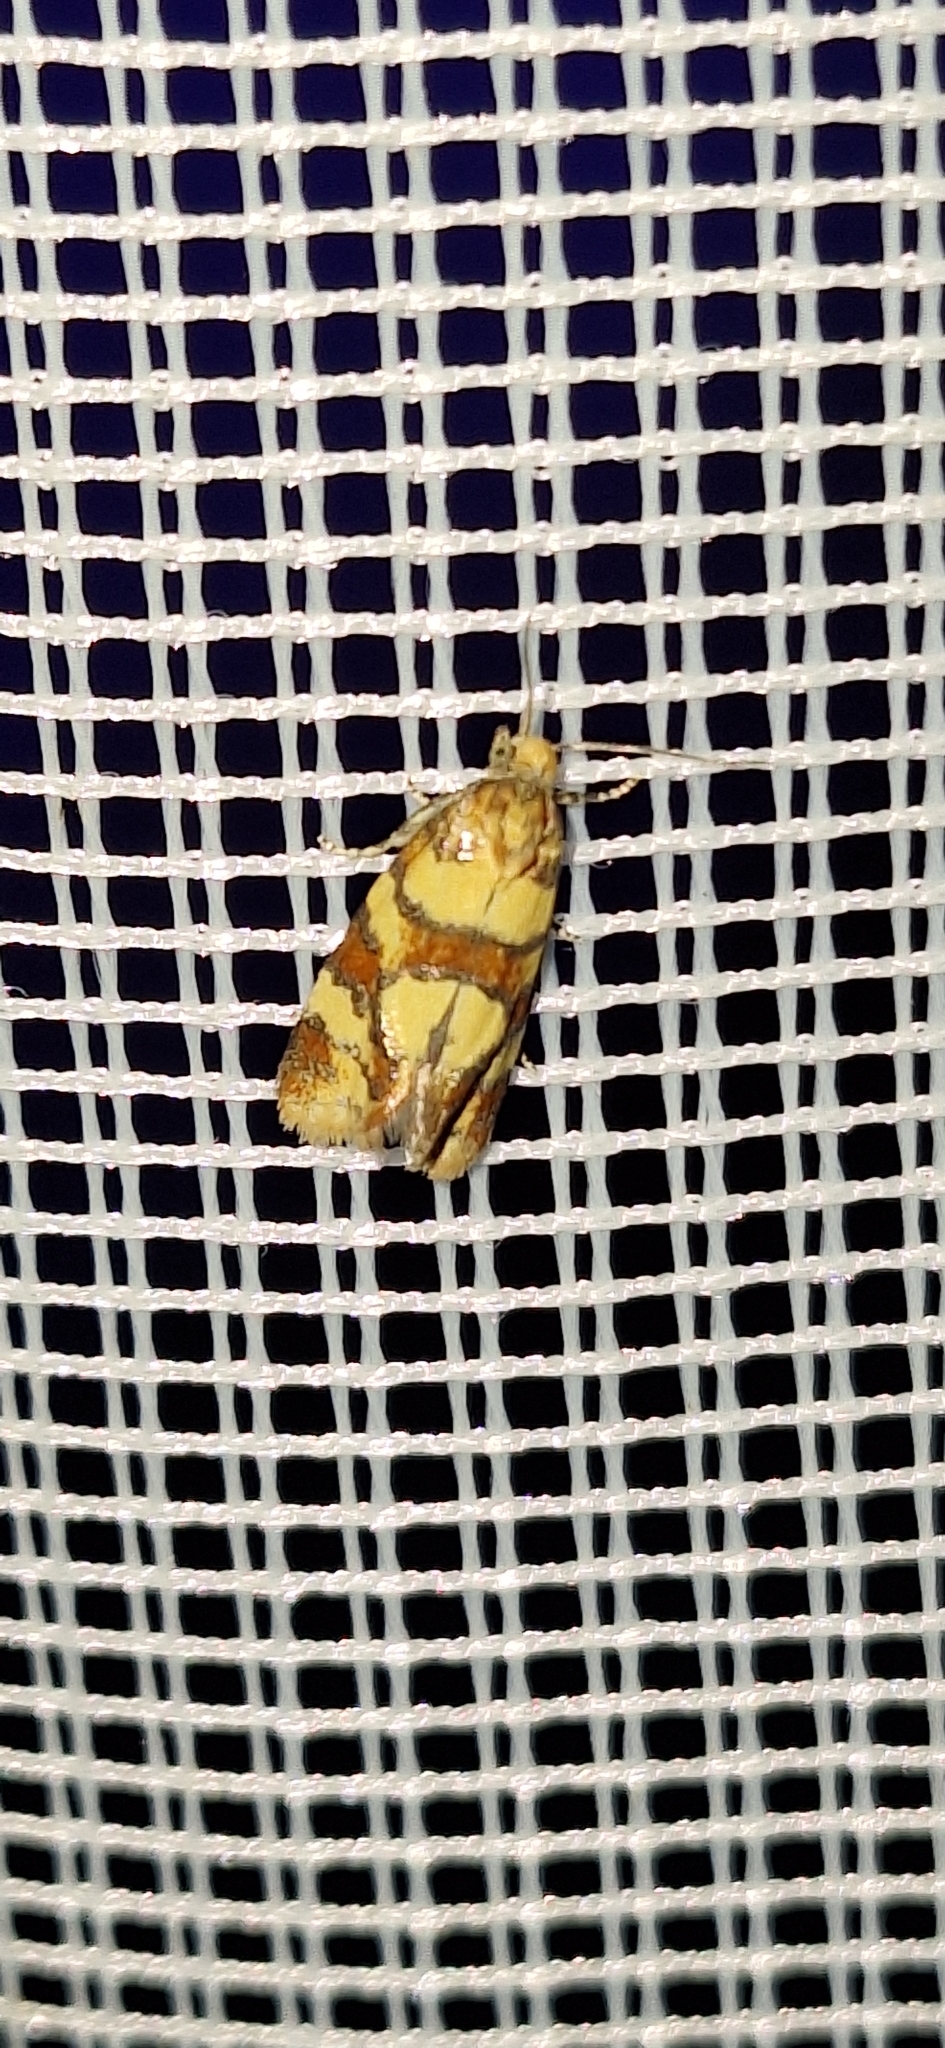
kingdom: Animalia
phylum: Arthropoda
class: Insecta
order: Lepidoptera
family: Tortricidae
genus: Aethes
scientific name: Aethes tesserana
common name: Downland conch
